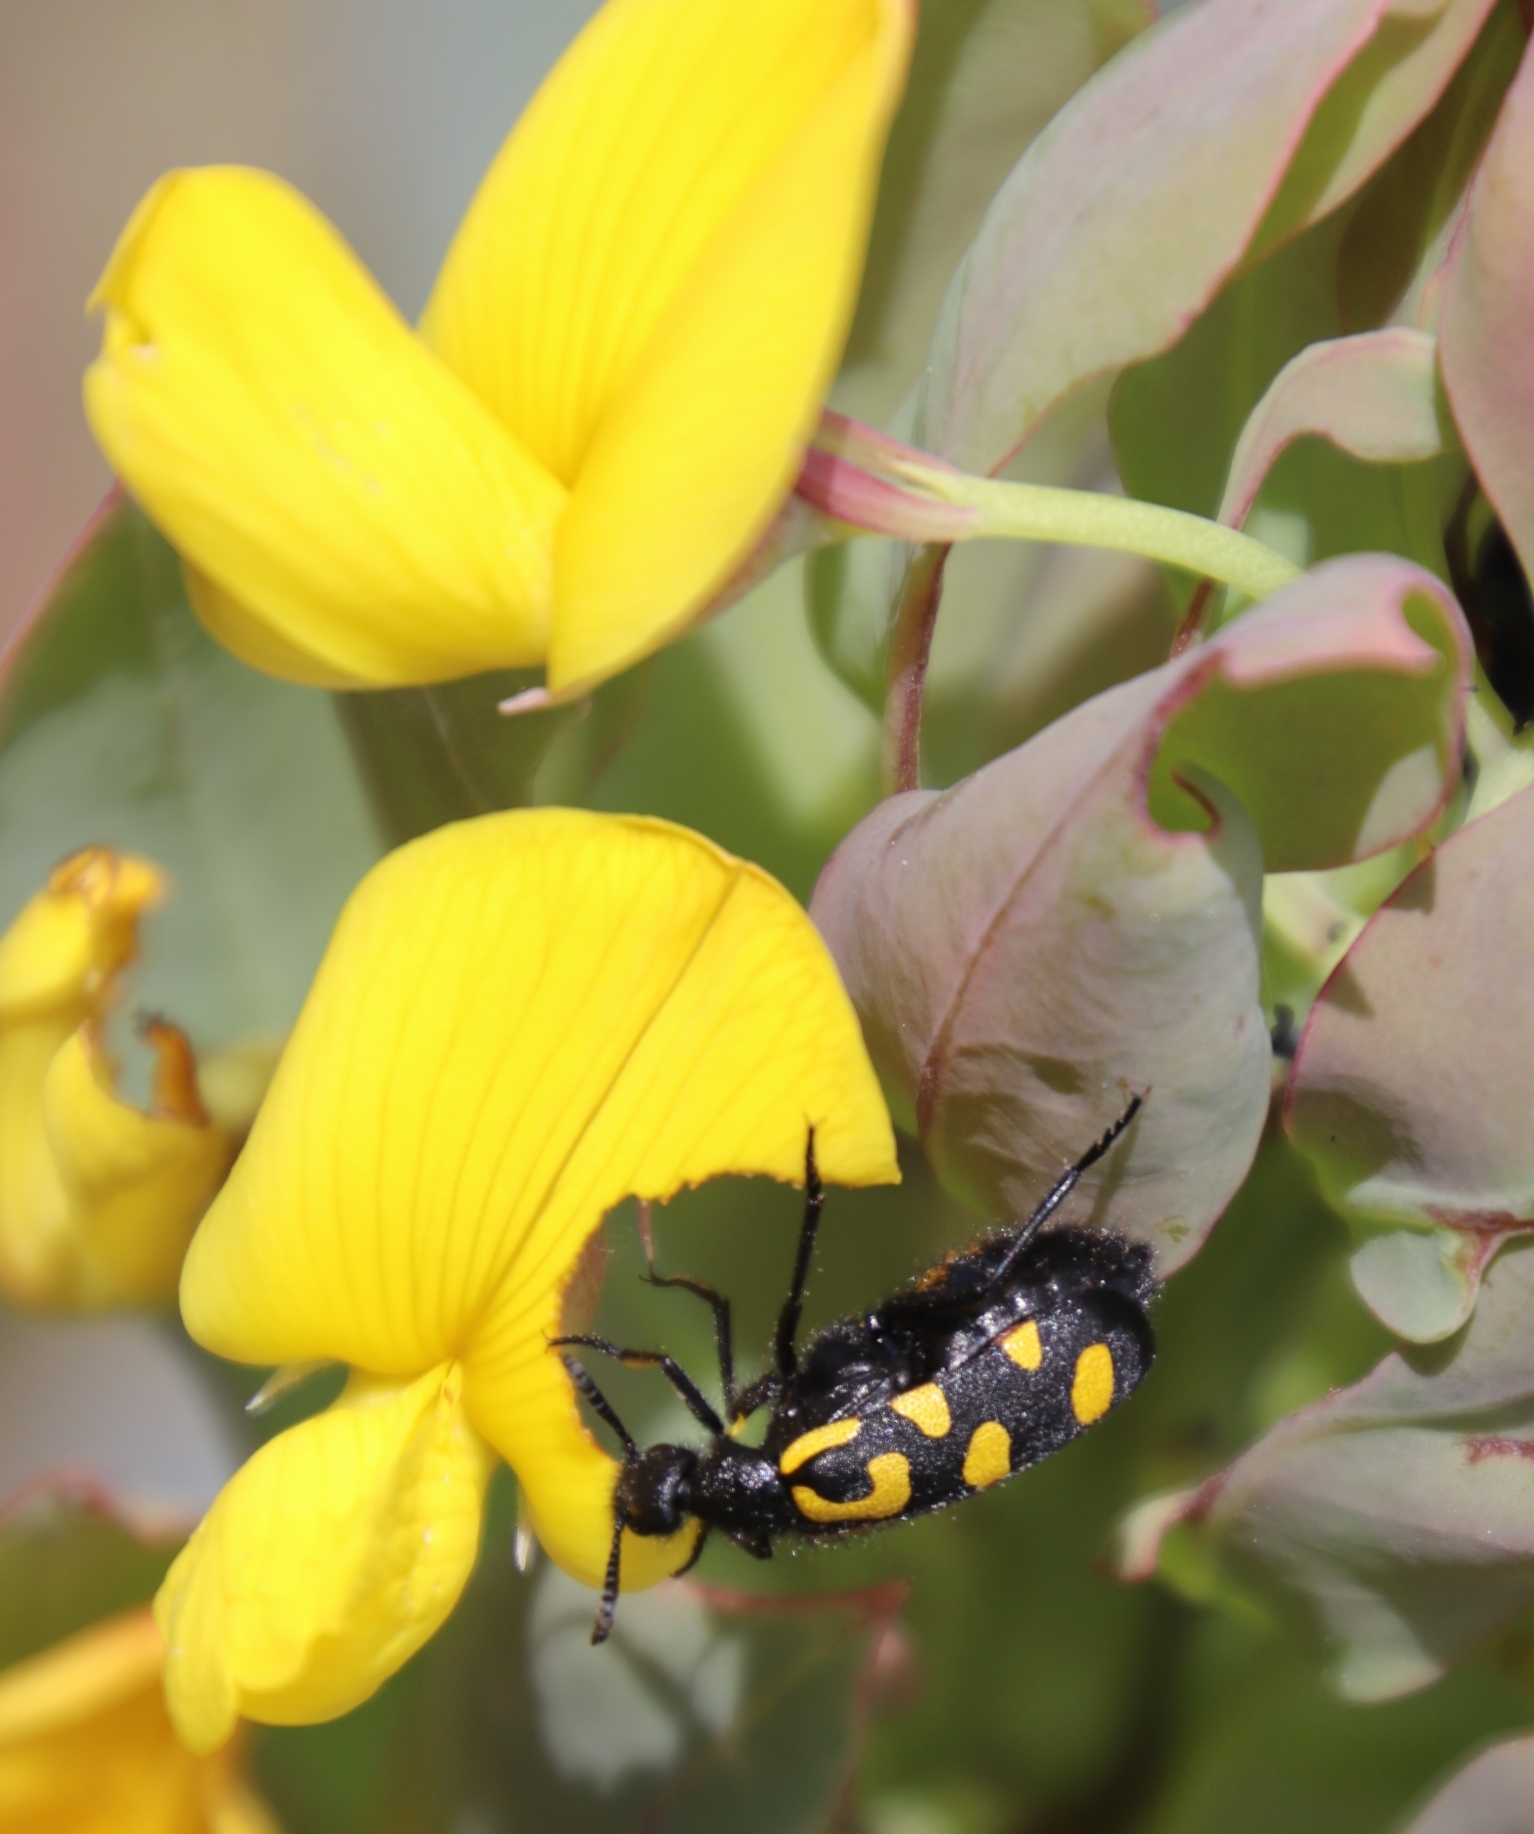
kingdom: Animalia
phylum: Arthropoda
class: Insecta
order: Coleoptera
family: Meloidae
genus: Ceroctis
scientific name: Ceroctis capensis
